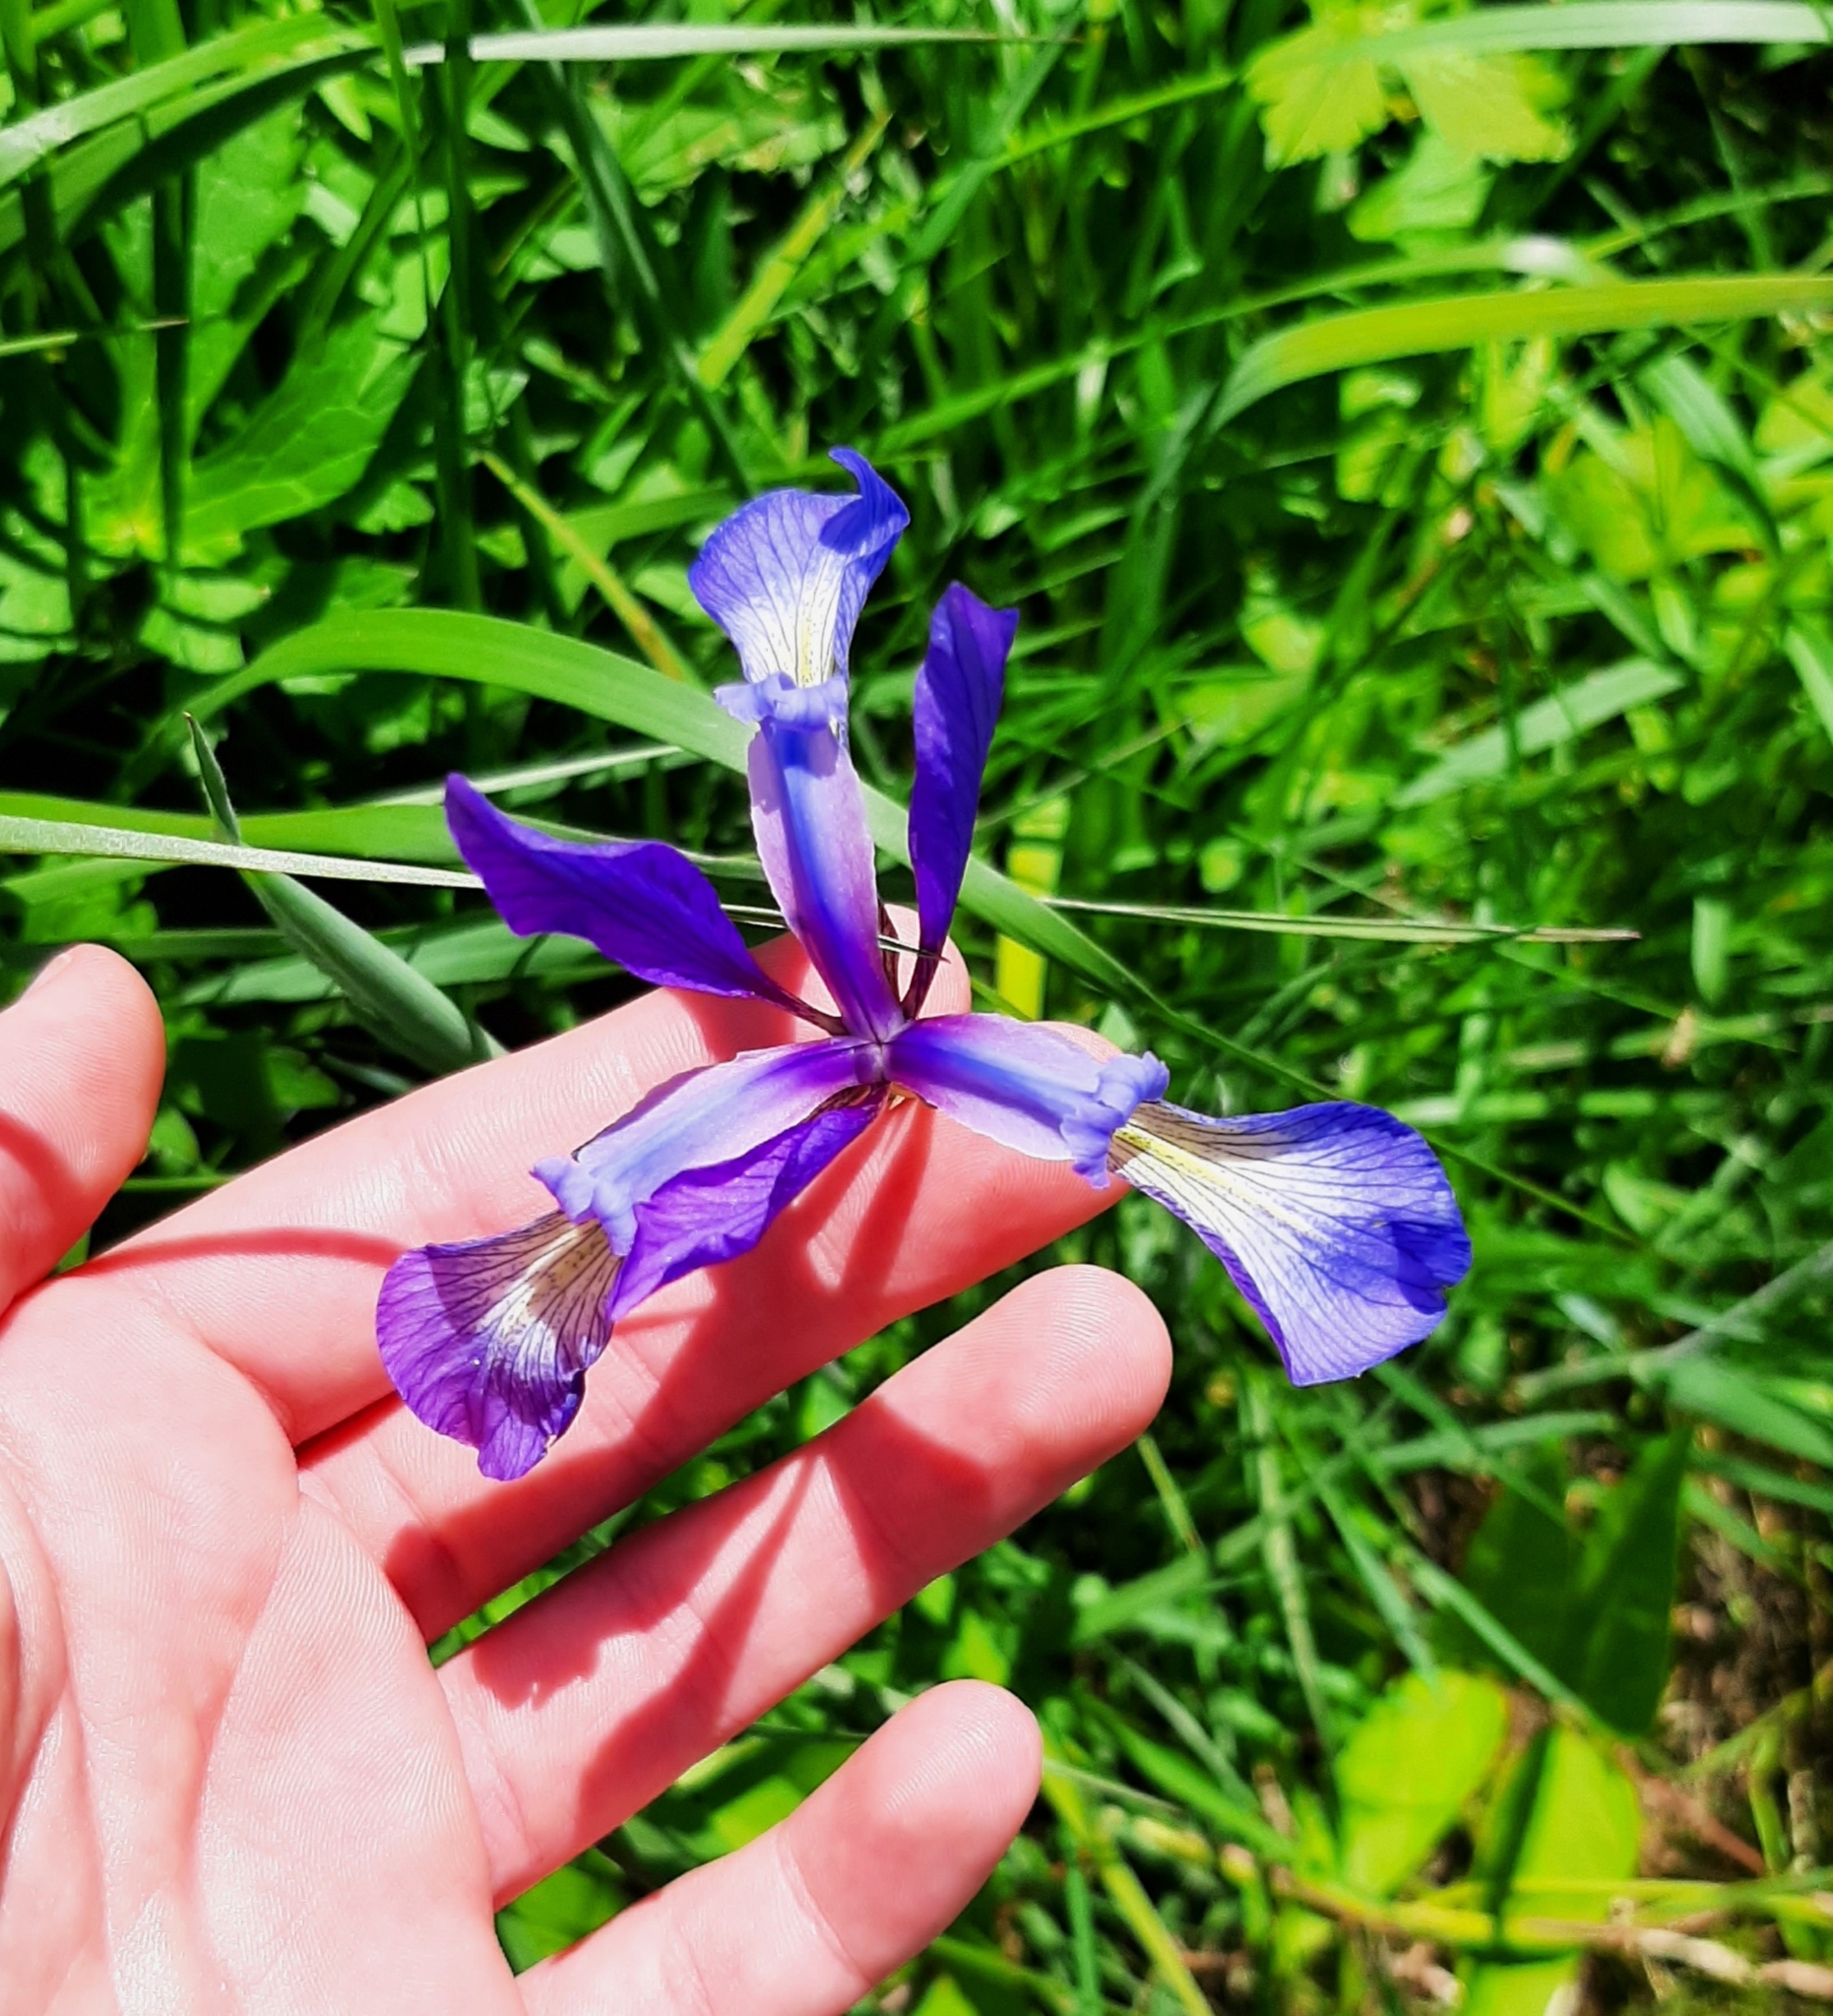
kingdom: Plantae
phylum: Tracheophyta
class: Liliopsida
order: Asparagales
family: Iridaceae
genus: Iris
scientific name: Iris prismatica
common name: Slender blue flag
